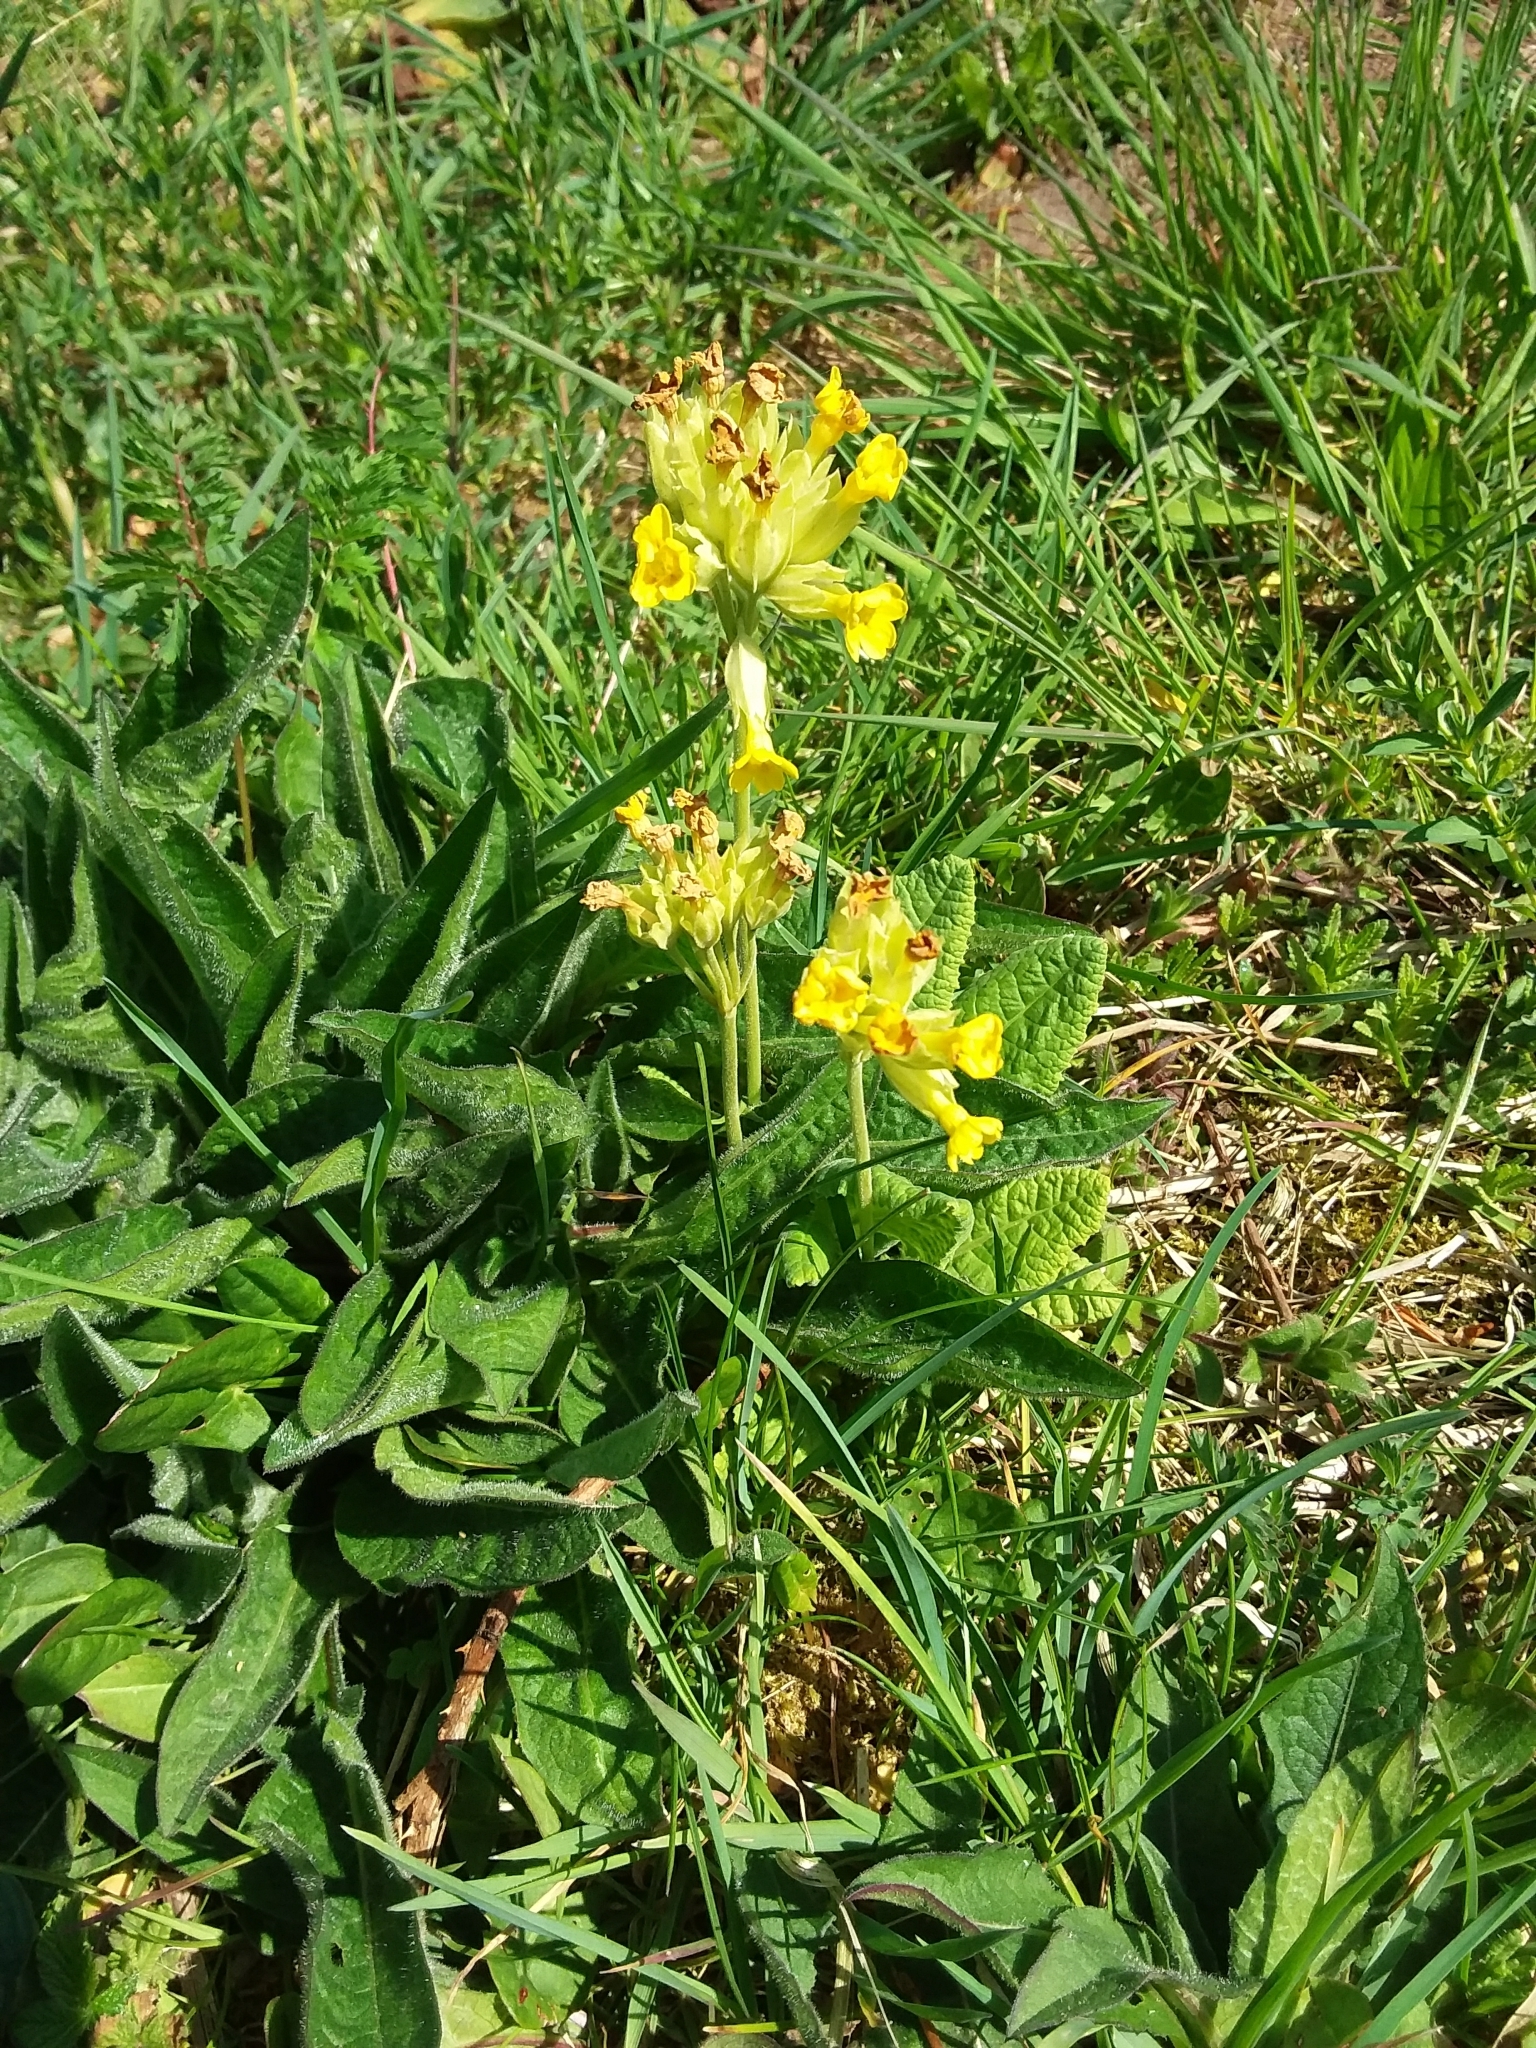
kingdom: Plantae
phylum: Tracheophyta
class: Magnoliopsida
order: Ericales
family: Primulaceae
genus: Primula
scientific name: Primula veris
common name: Cowslip
